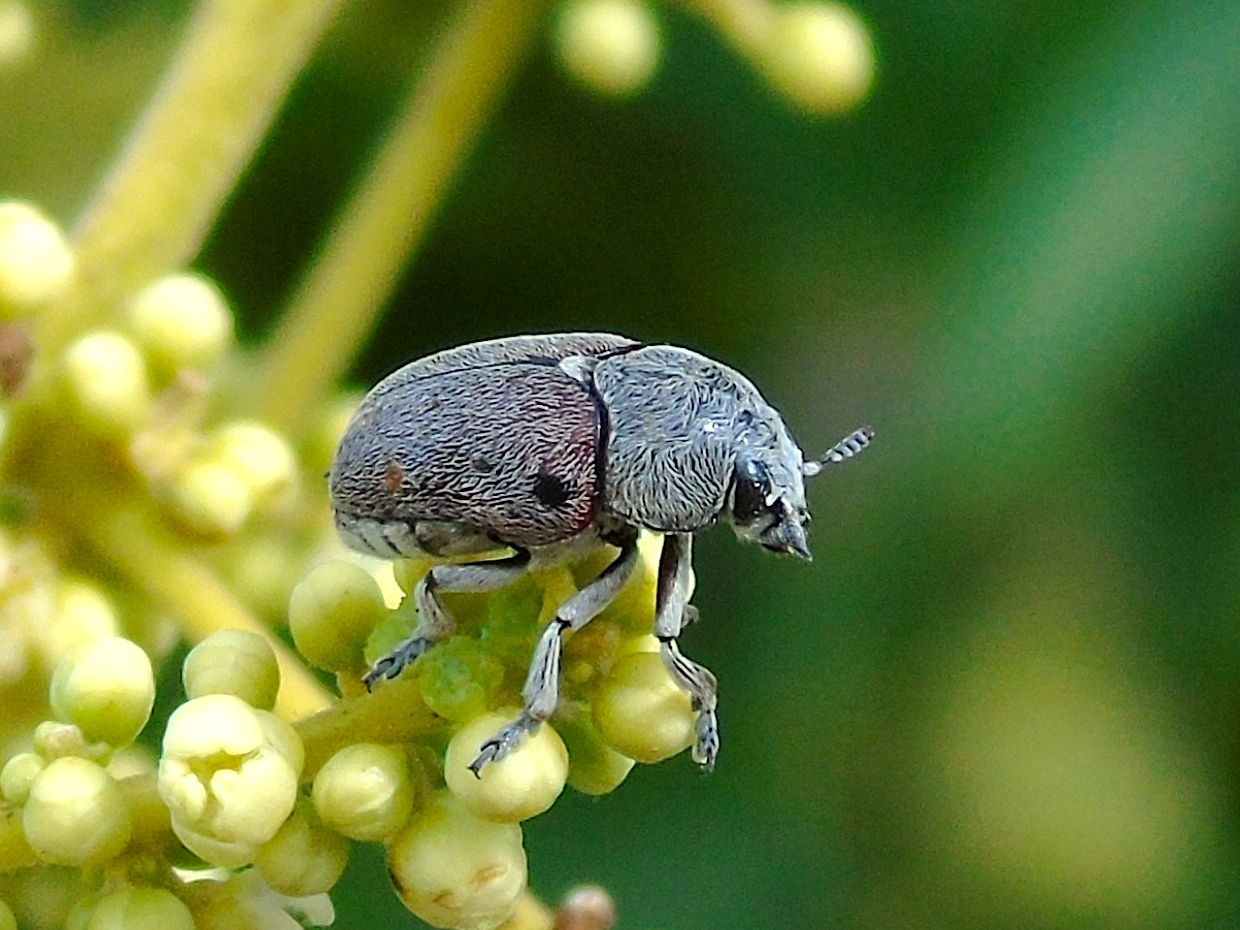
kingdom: Animalia
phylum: Arthropoda
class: Insecta
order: Coleoptera
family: Chrysomelidae
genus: Megalostomis
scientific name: Megalostomis dimidiata
